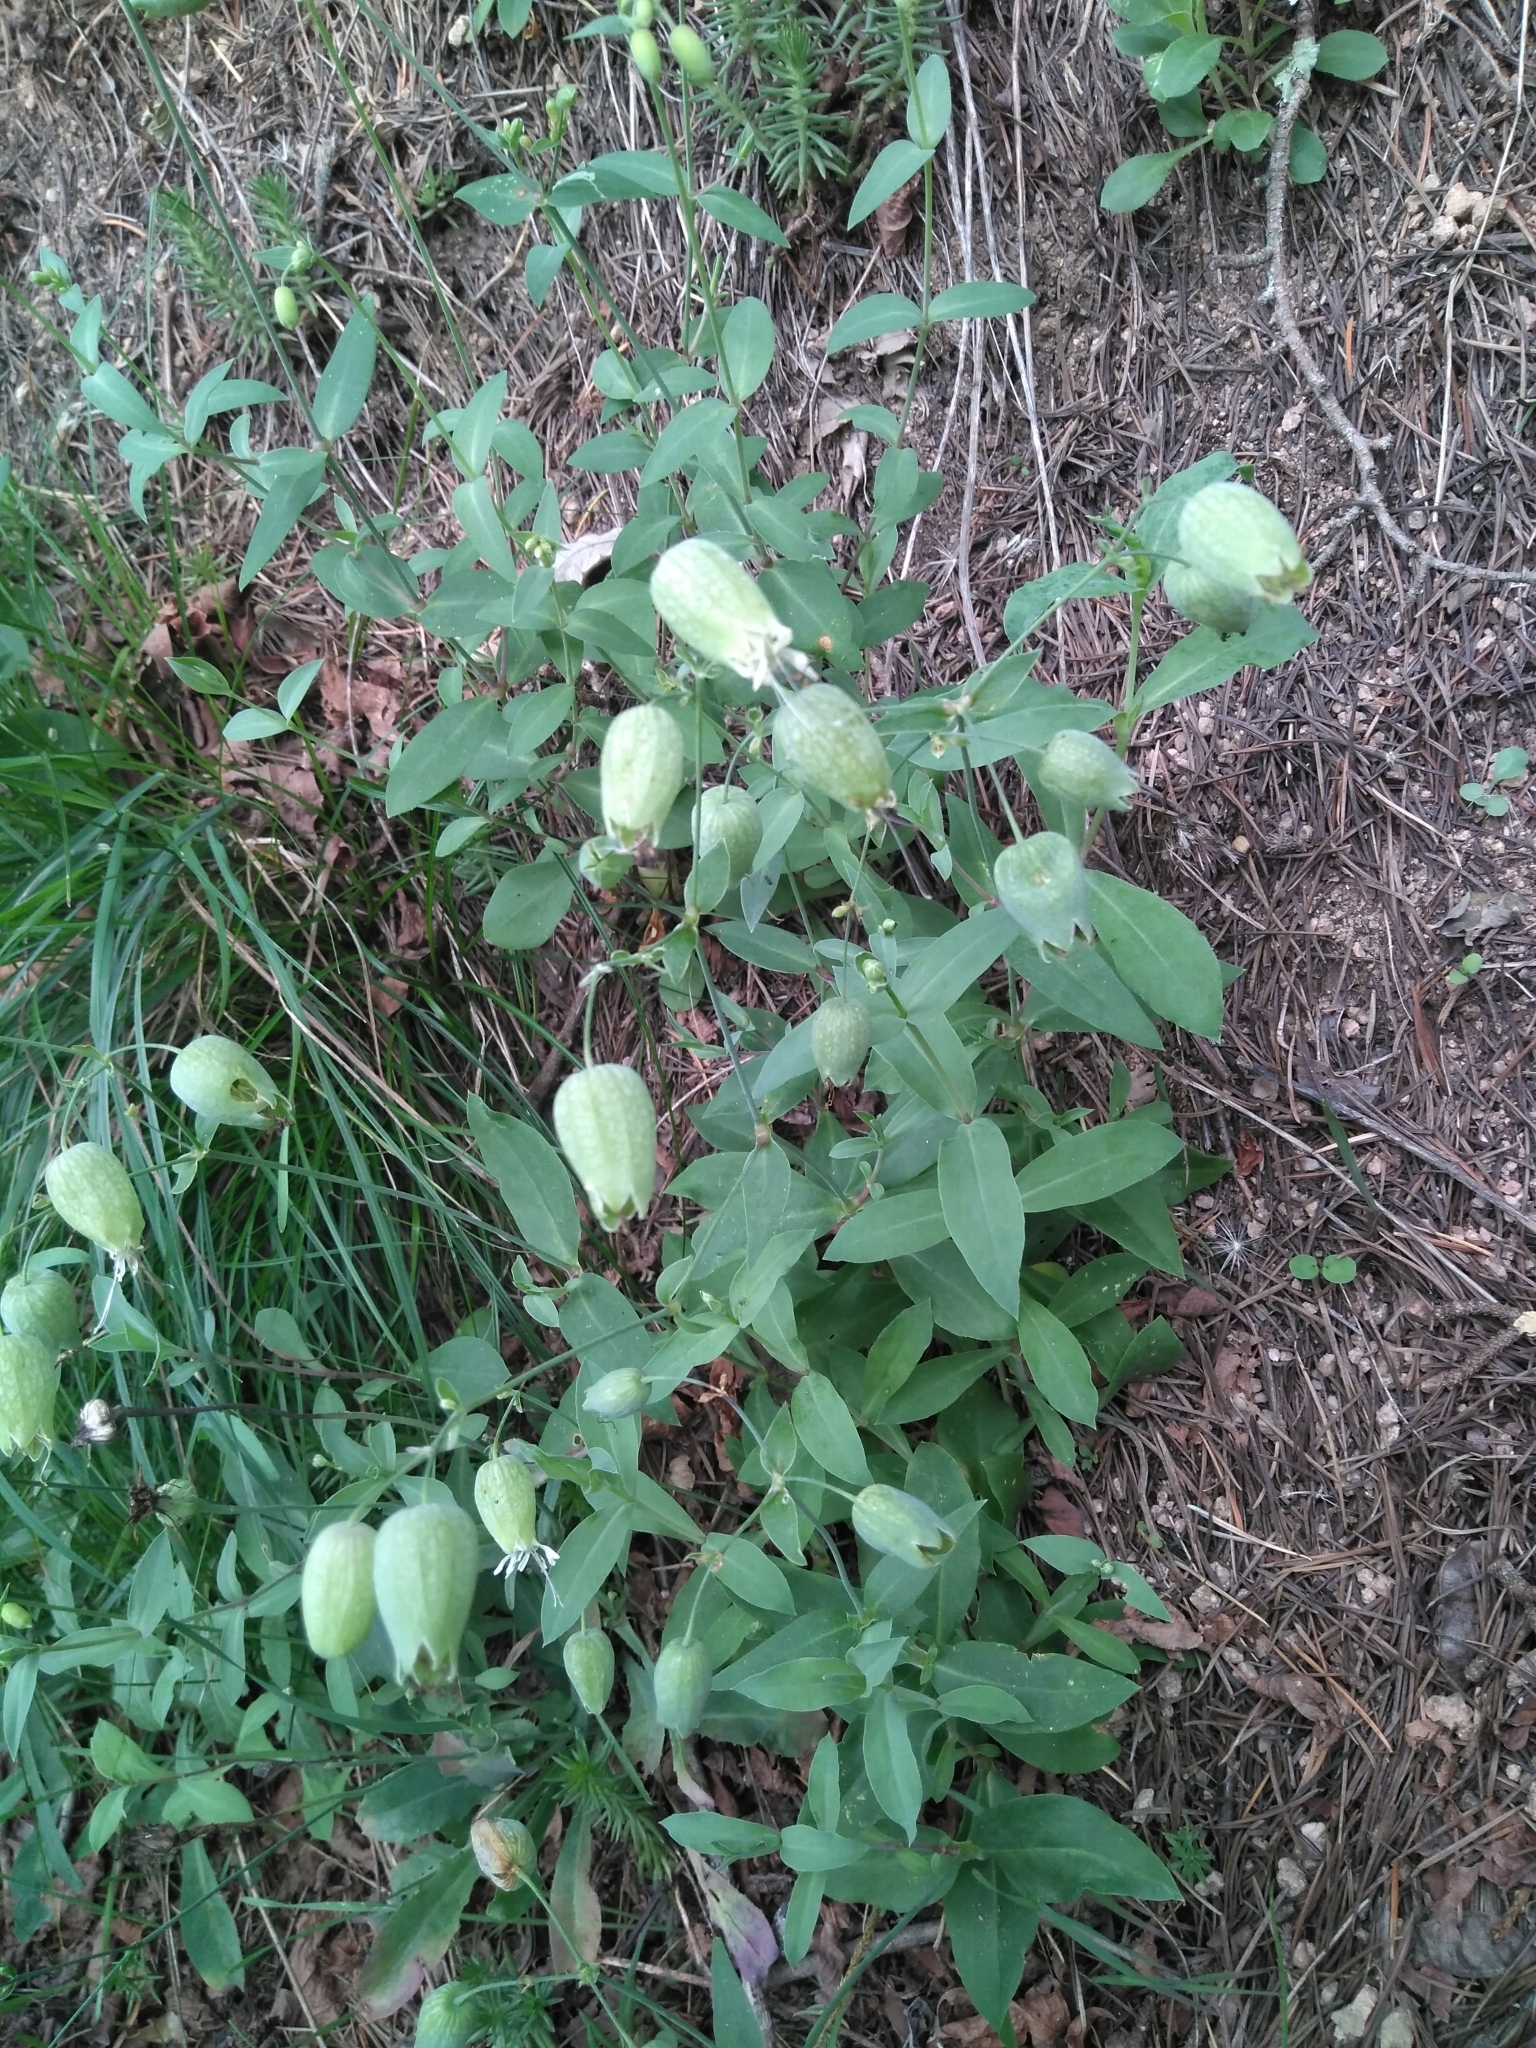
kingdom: Plantae
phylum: Tracheophyta
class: Magnoliopsida
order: Caryophyllales
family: Caryophyllaceae
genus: Silene
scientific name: Silene vulgaris
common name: Bladder campion
